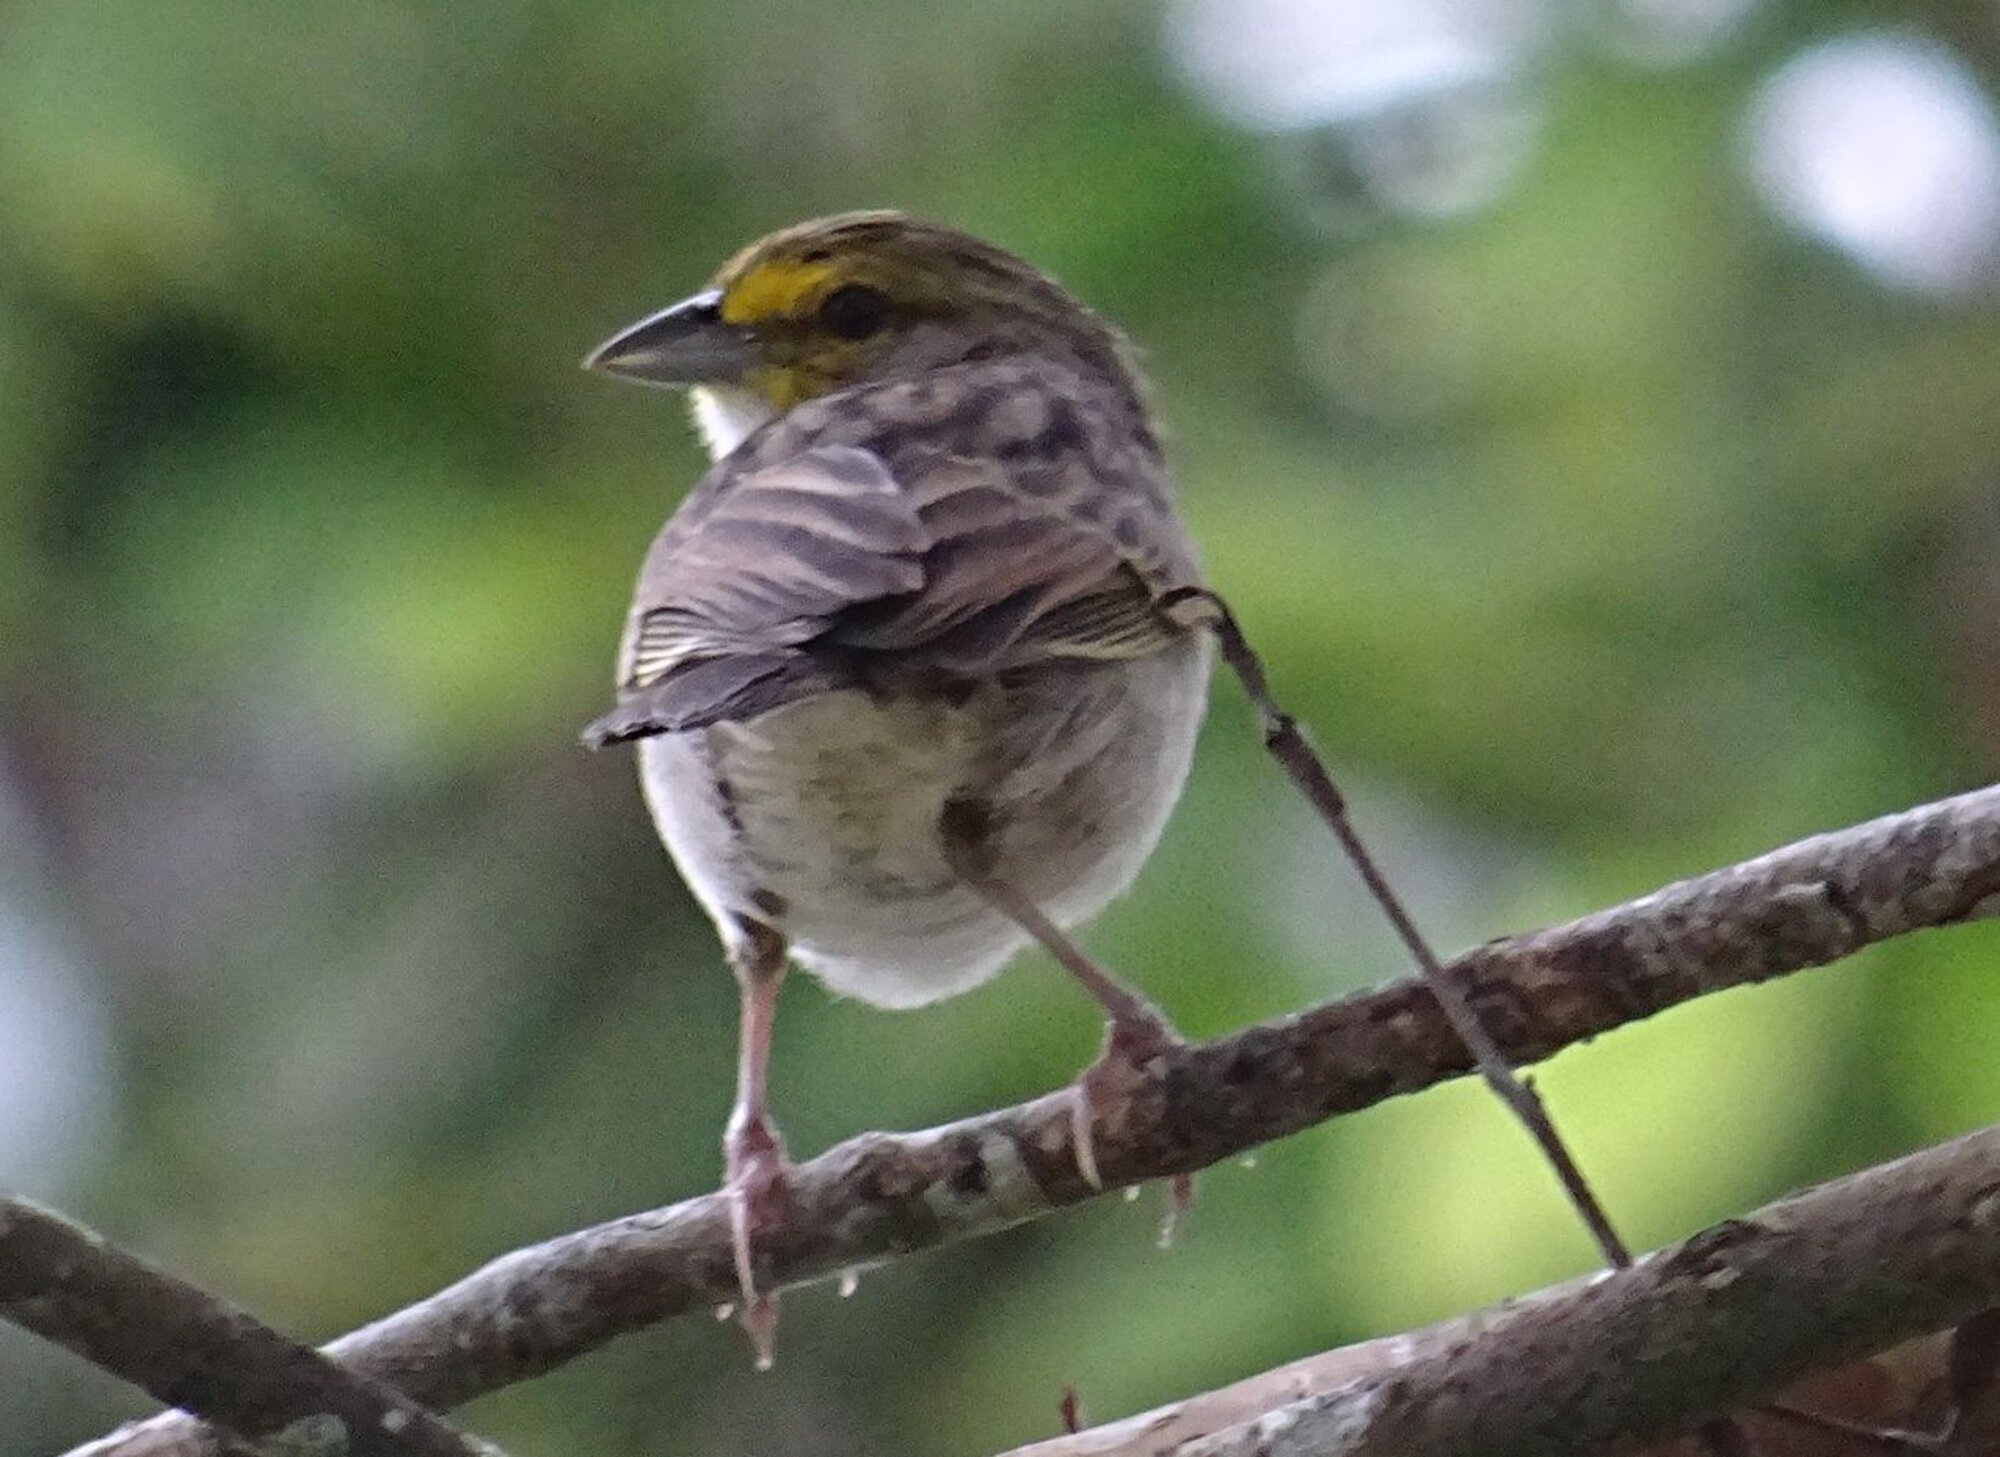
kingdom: Animalia
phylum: Chordata
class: Aves
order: Passeriformes
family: Passerellidae
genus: Ammodramus
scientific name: Ammodramus aurifrons
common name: Yellow-browed sparrow
